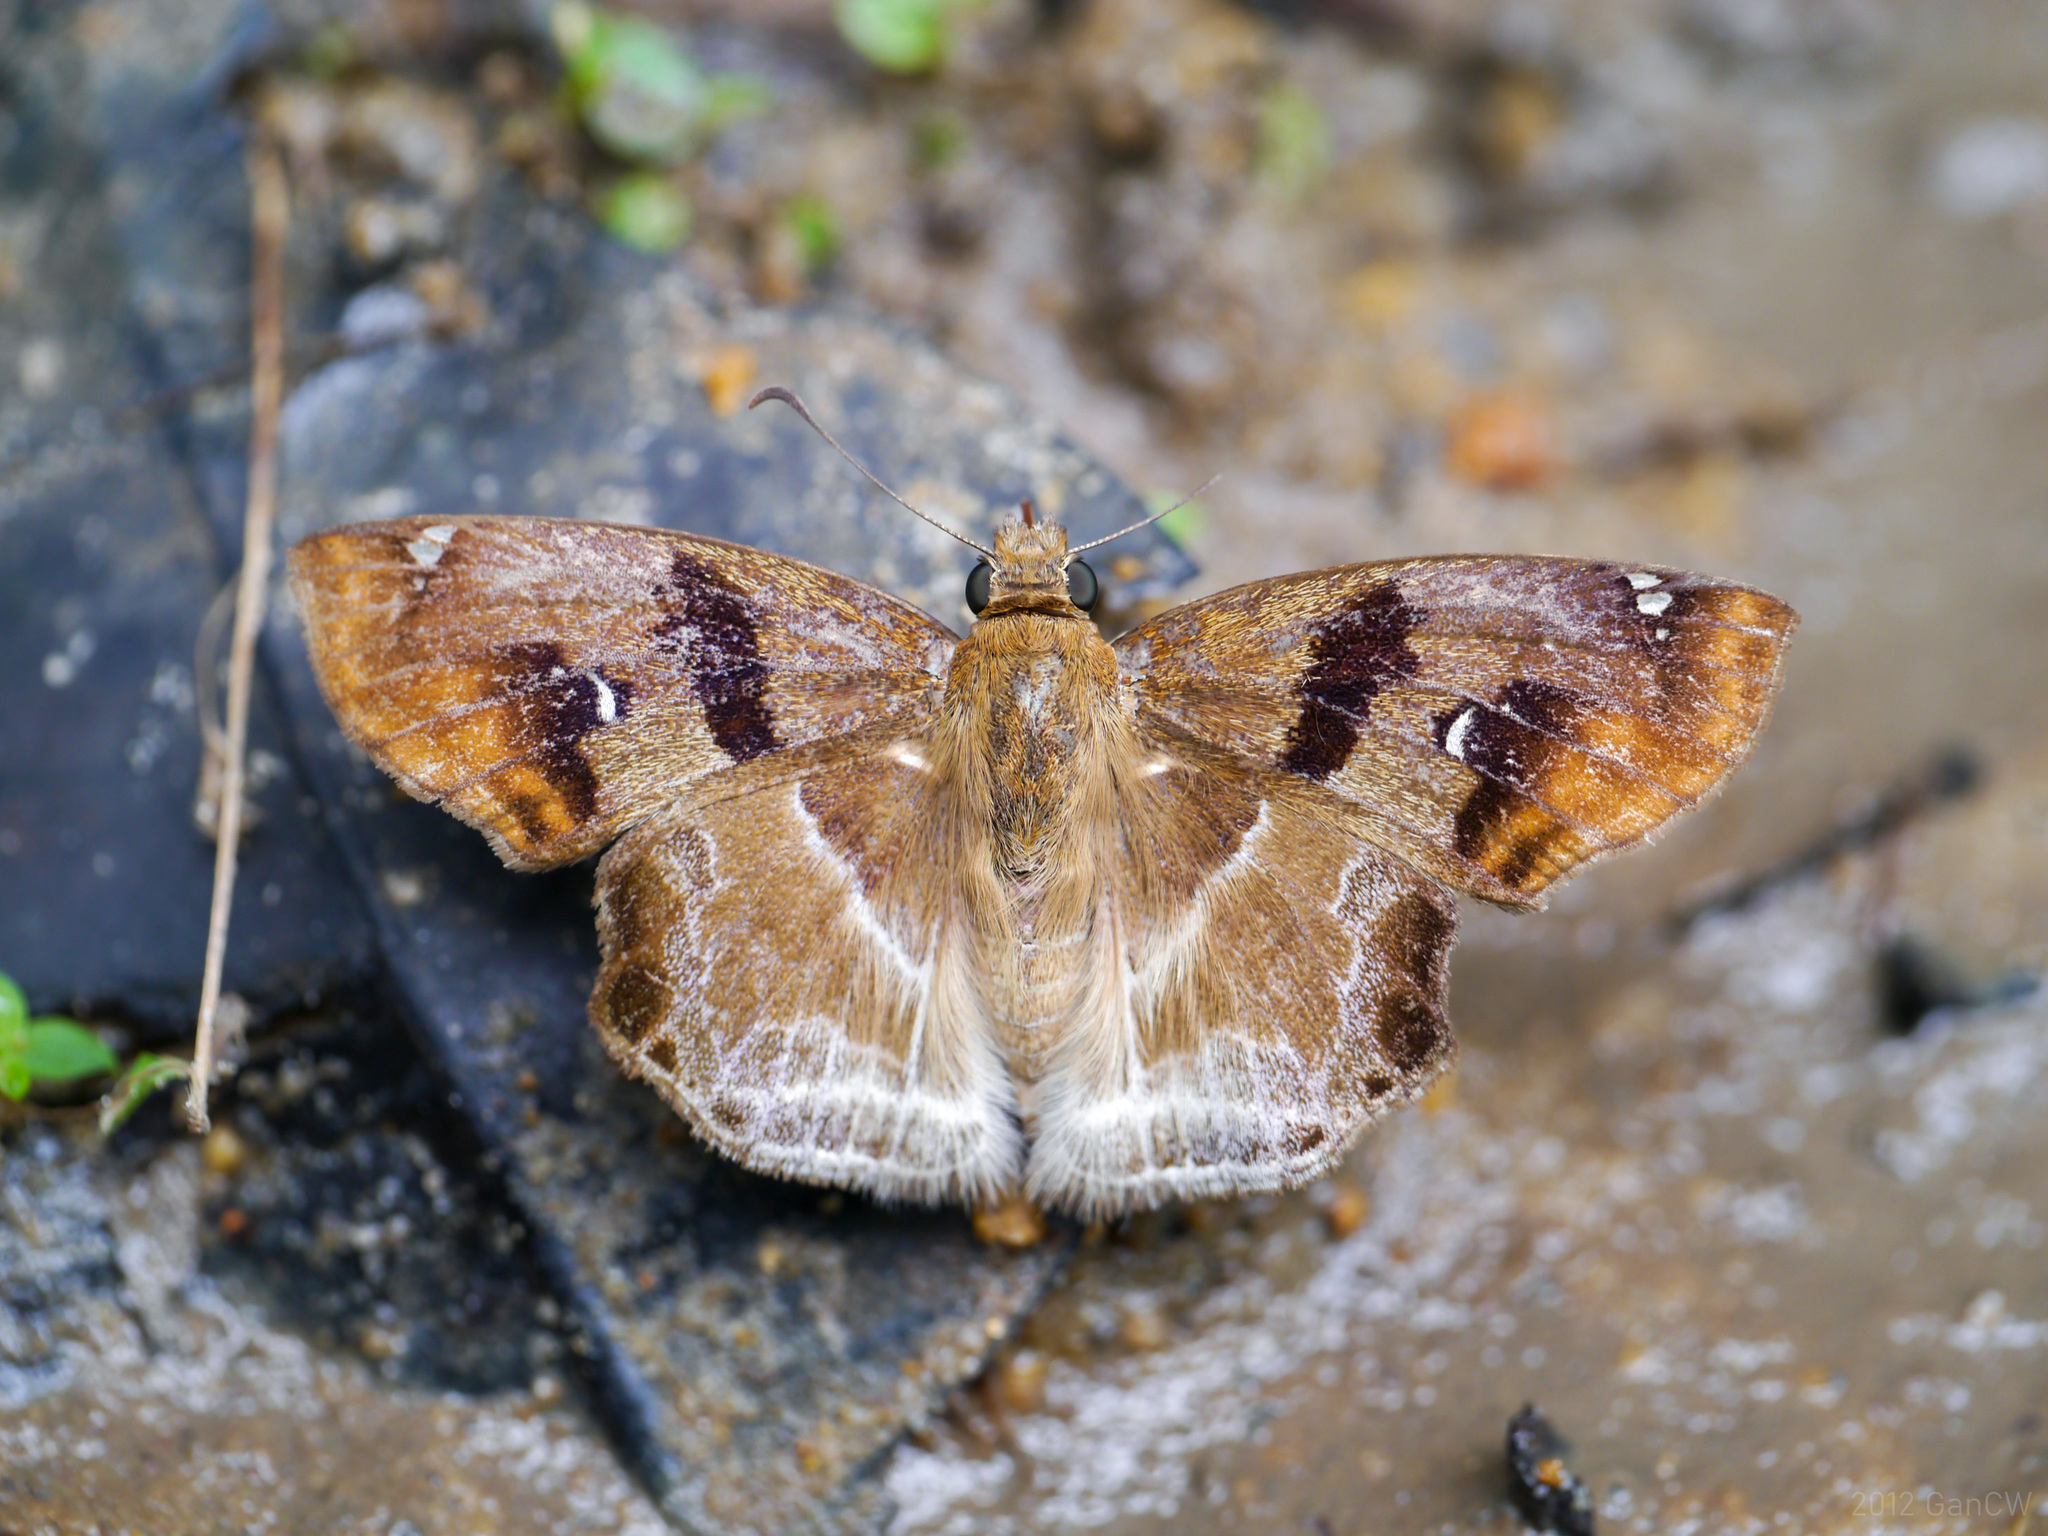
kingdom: Animalia
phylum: Arthropoda
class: Insecta
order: Lepidoptera
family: Hesperiidae
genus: Odontoptilum
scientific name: Odontoptilum angulata
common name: Chestnut banded angle
